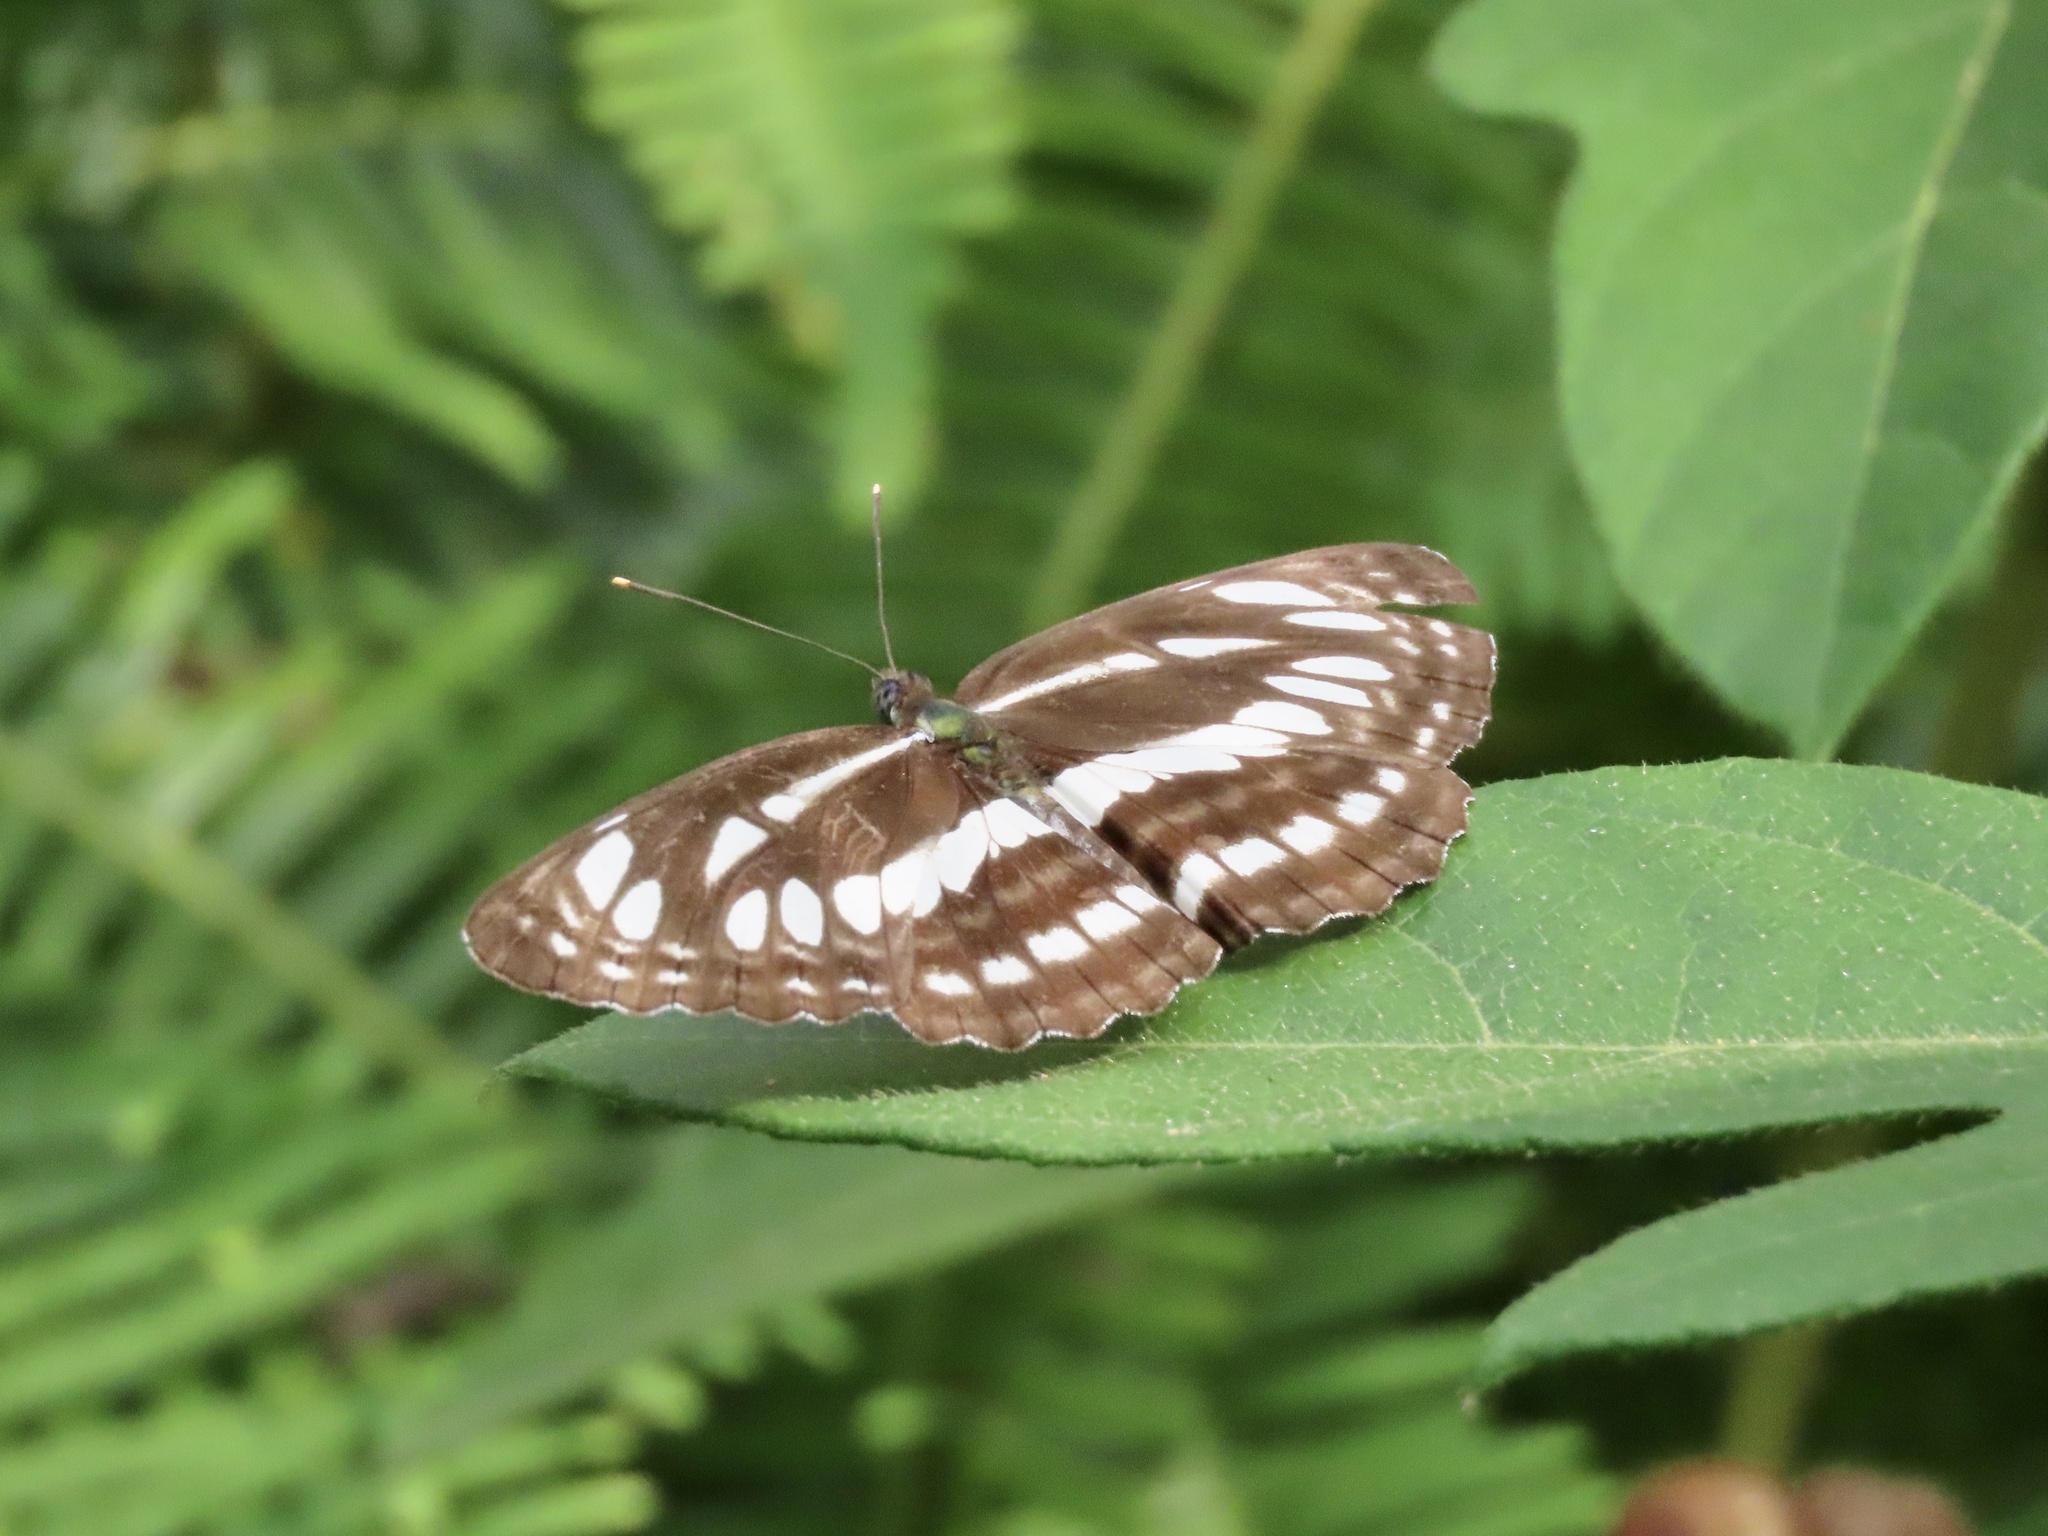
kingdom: Animalia
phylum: Arthropoda
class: Insecta
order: Lepidoptera
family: Nymphalidae
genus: Neptis
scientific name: Neptis hylas
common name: Common sailer
